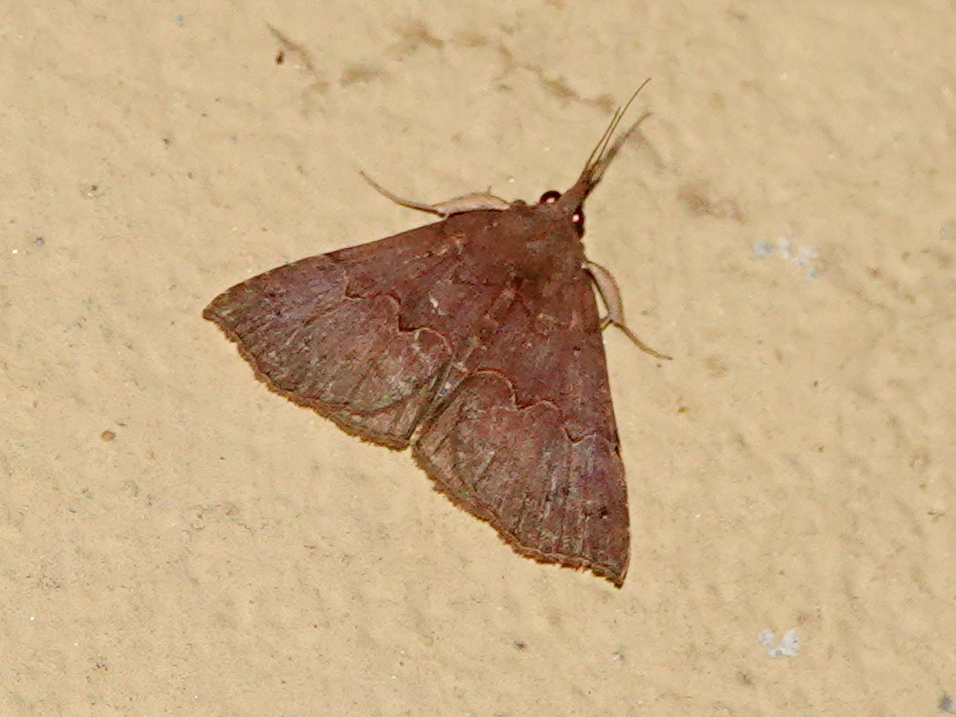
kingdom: Animalia
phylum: Arthropoda
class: Insecta
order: Lepidoptera
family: Erebidae
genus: Hypena
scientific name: Hypena ophiusoides
